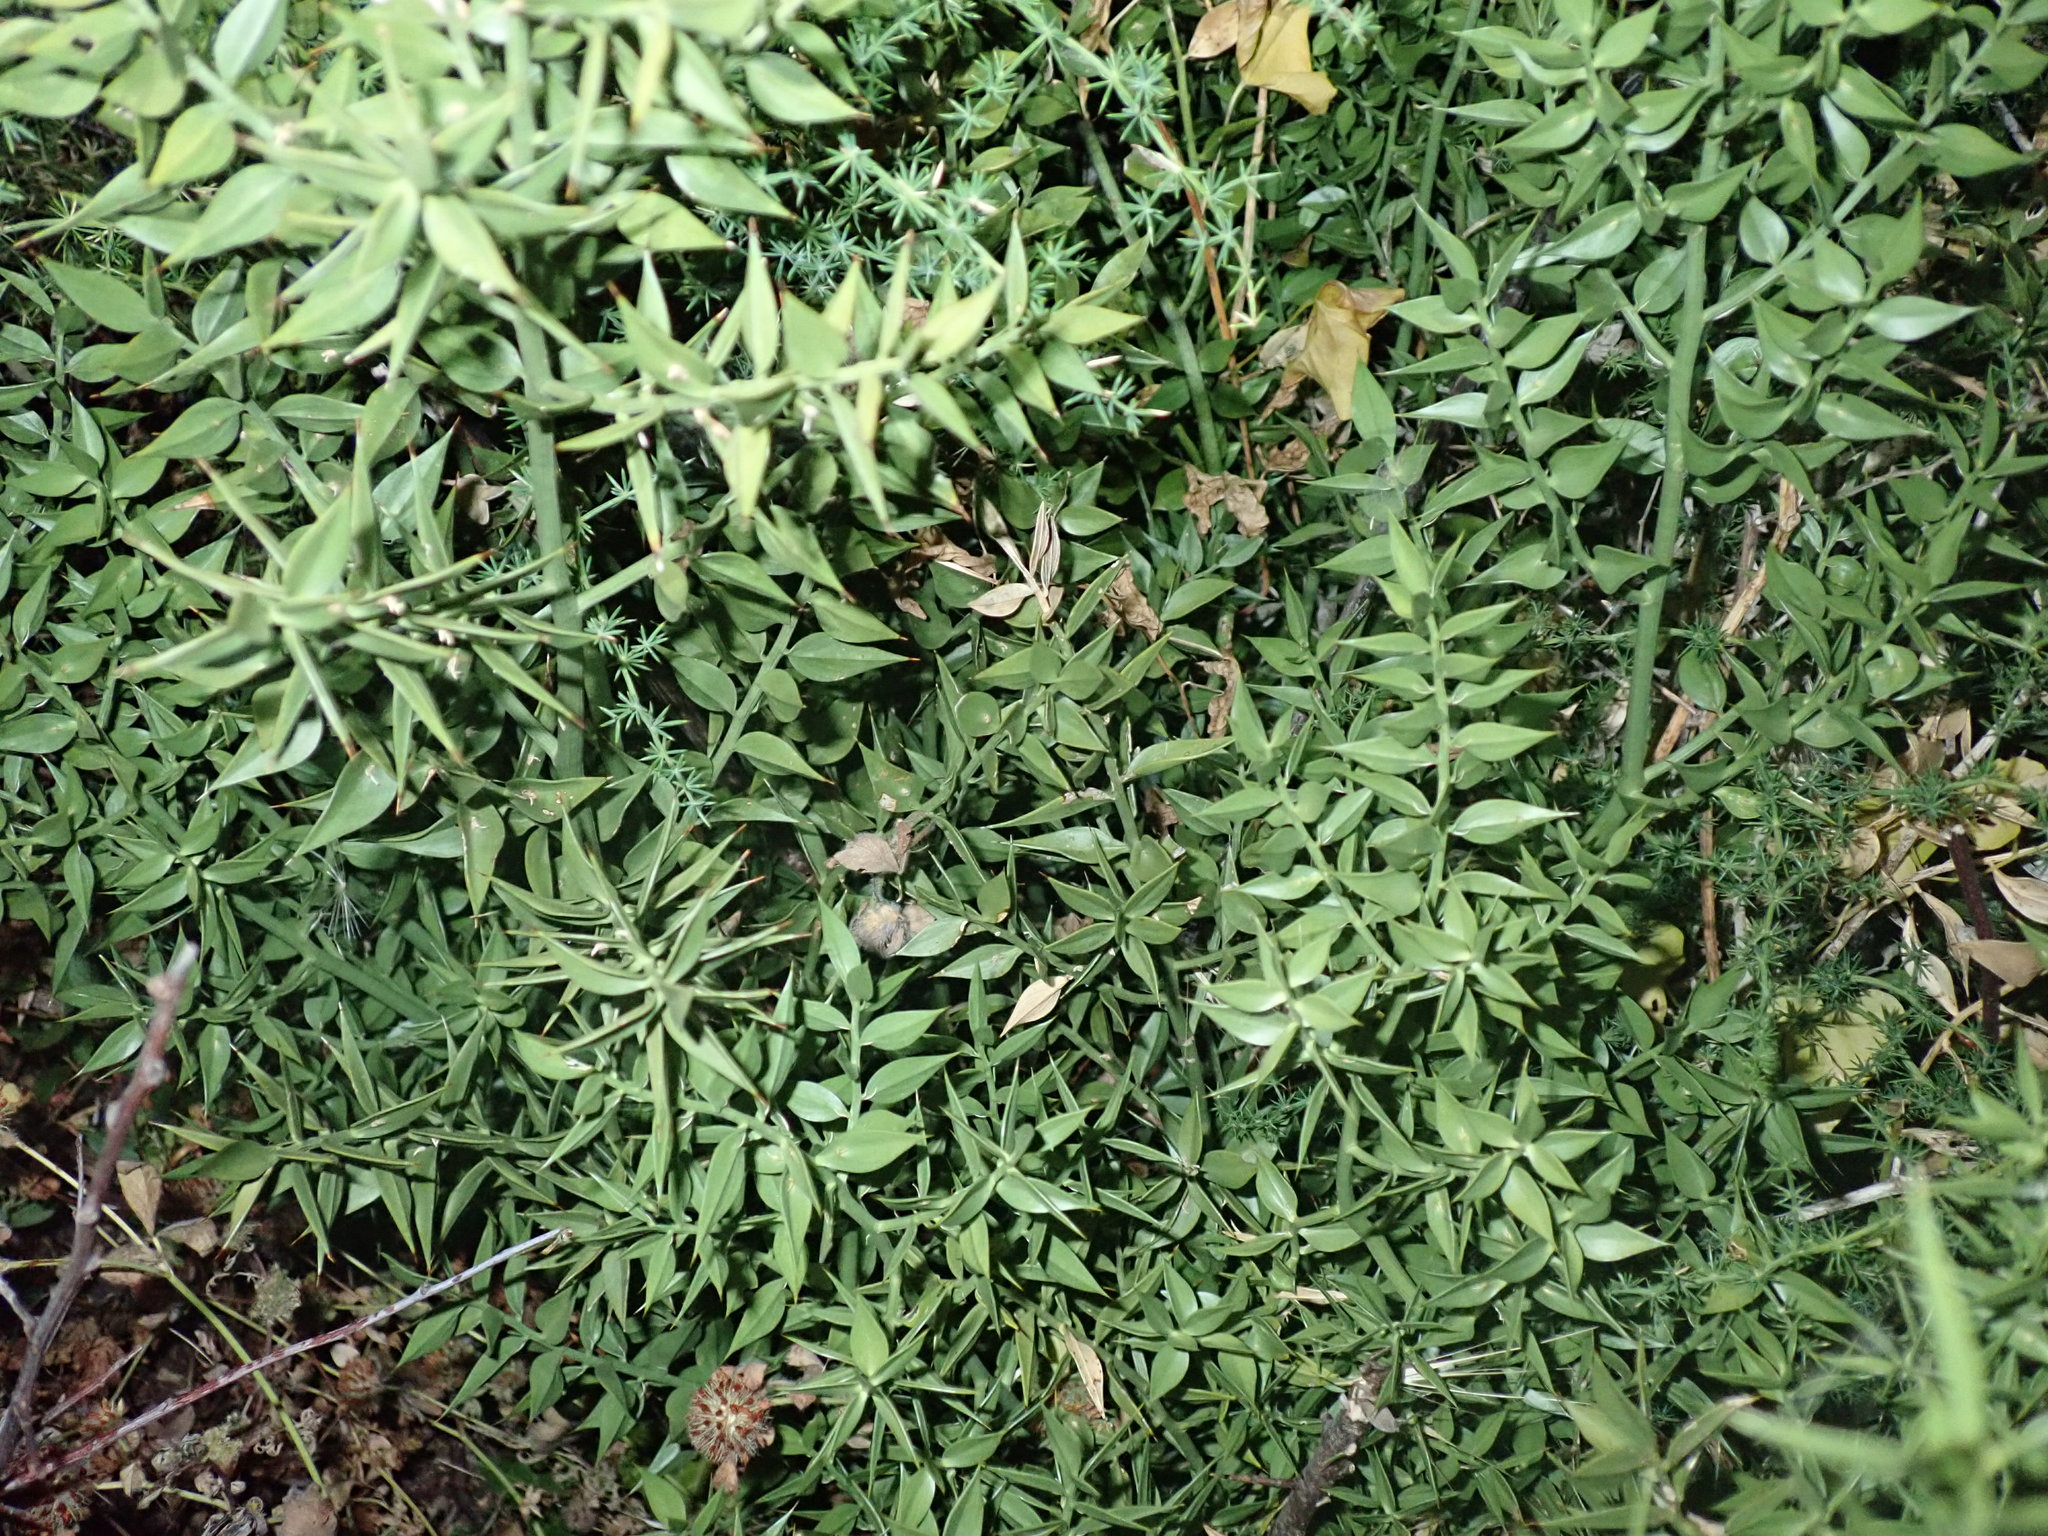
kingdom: Plantae
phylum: Tracheophyta
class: Liliopsida
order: Asparagales
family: Asparagaceae
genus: Ruscus
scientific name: Ruscus aculeatus
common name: Butcher's-broom
